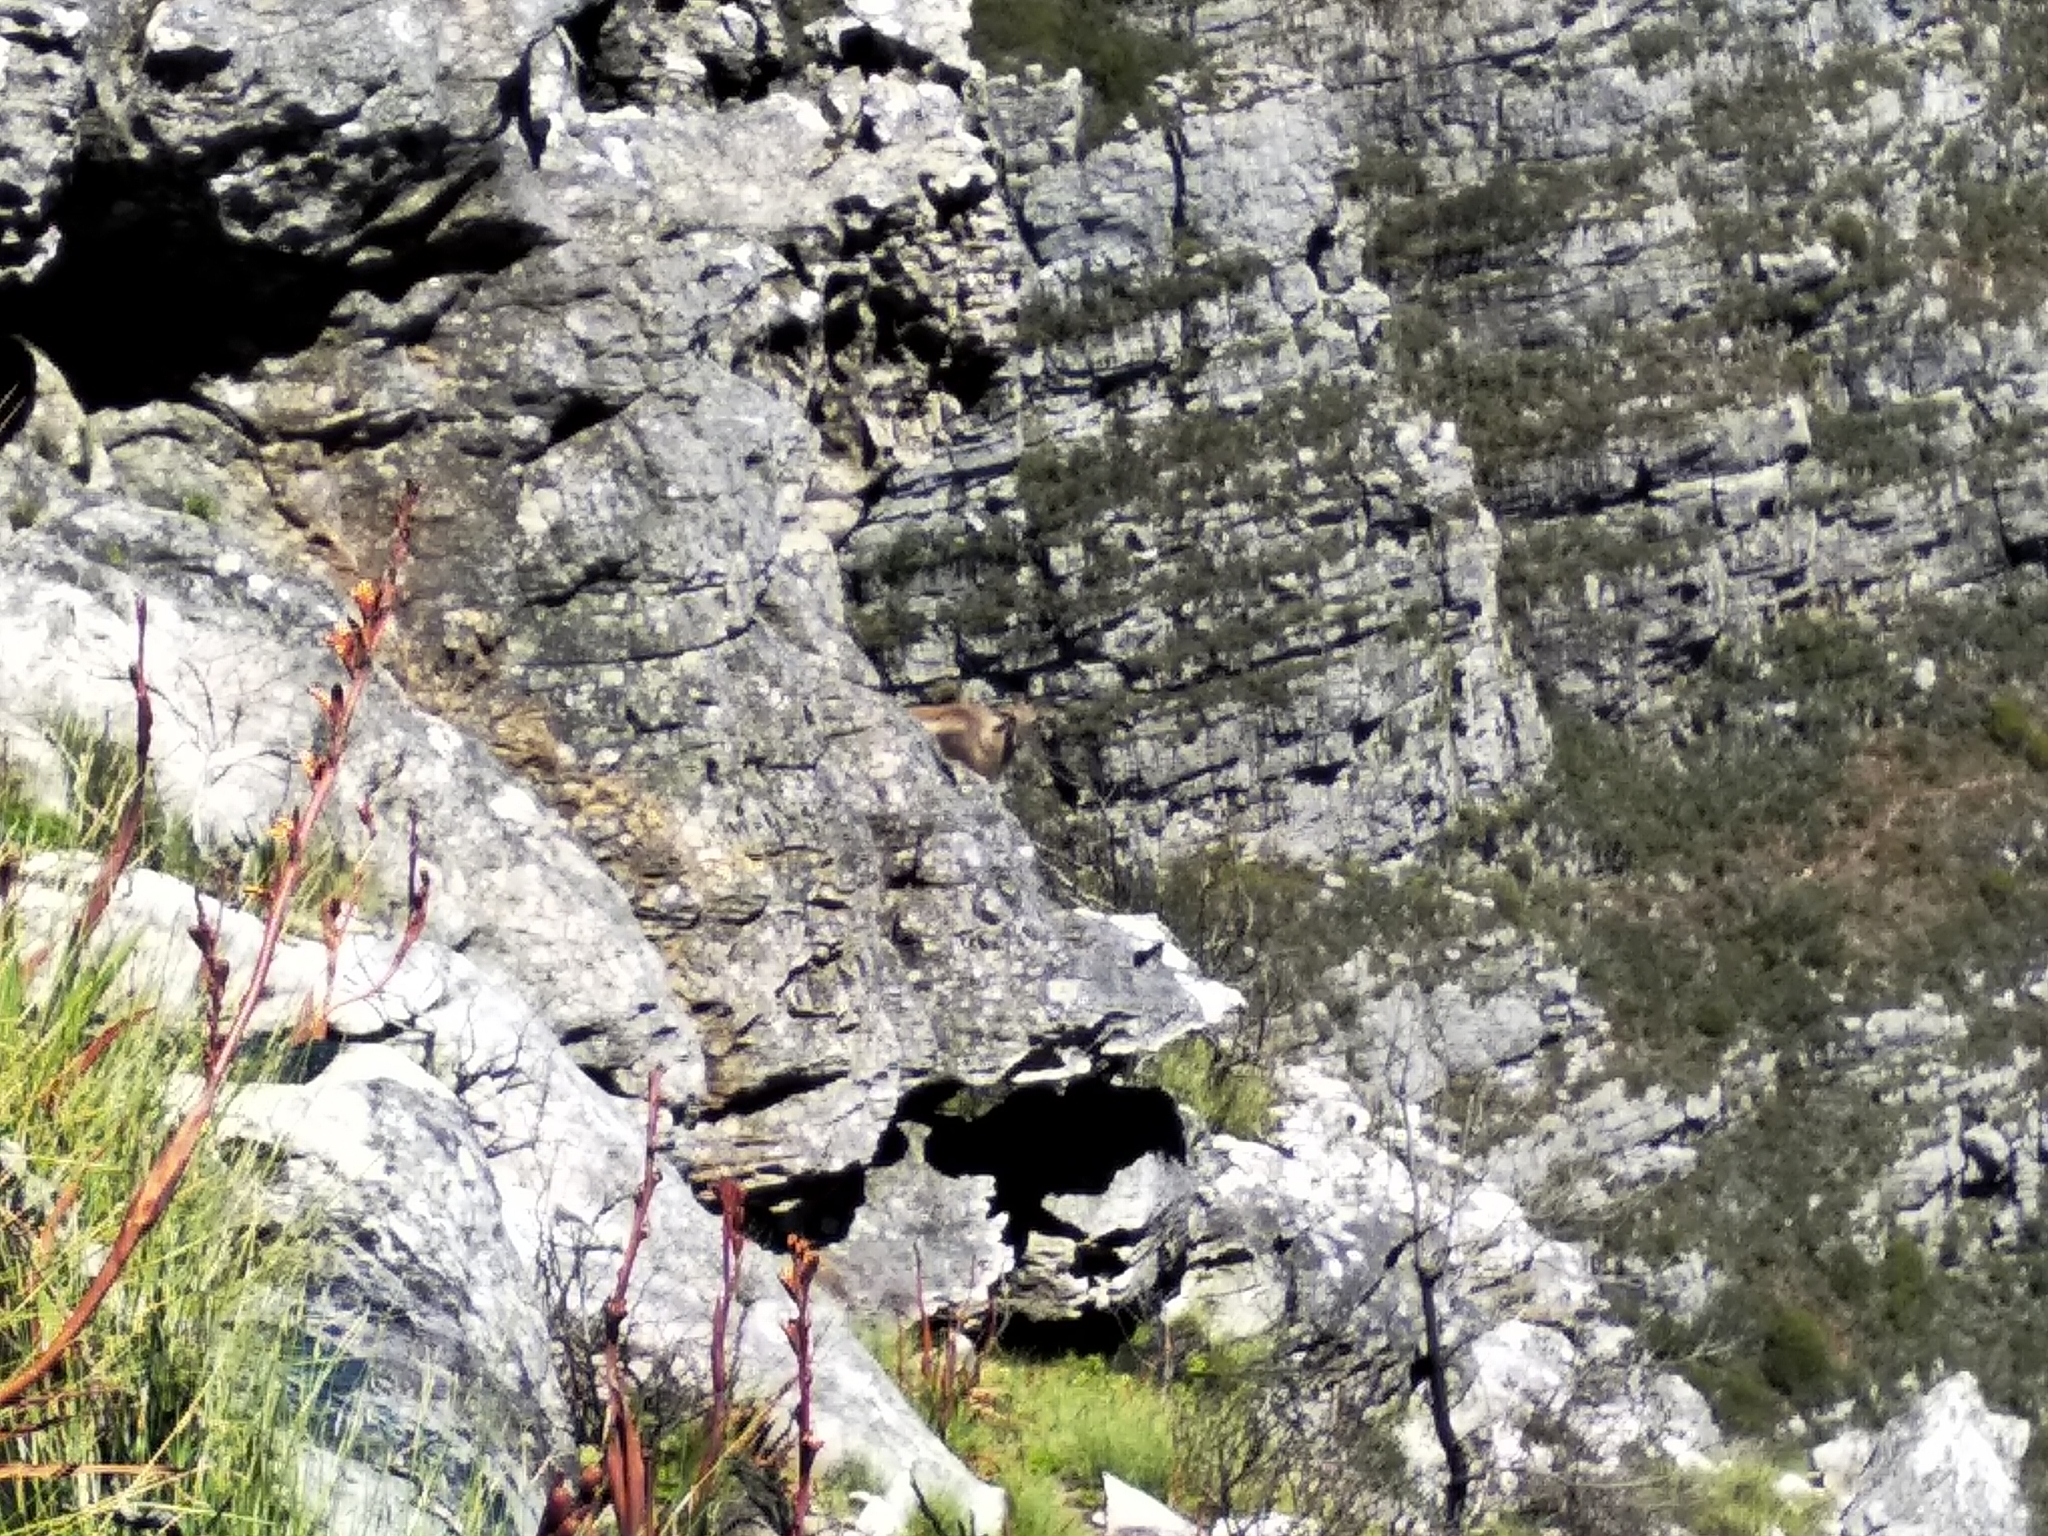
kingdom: Animalia
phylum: Chordata
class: Mammalia
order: Artiodactyla
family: Bovidae
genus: Hemitragus
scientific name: Hemitragus jemlahicus
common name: Himalayan tahr
